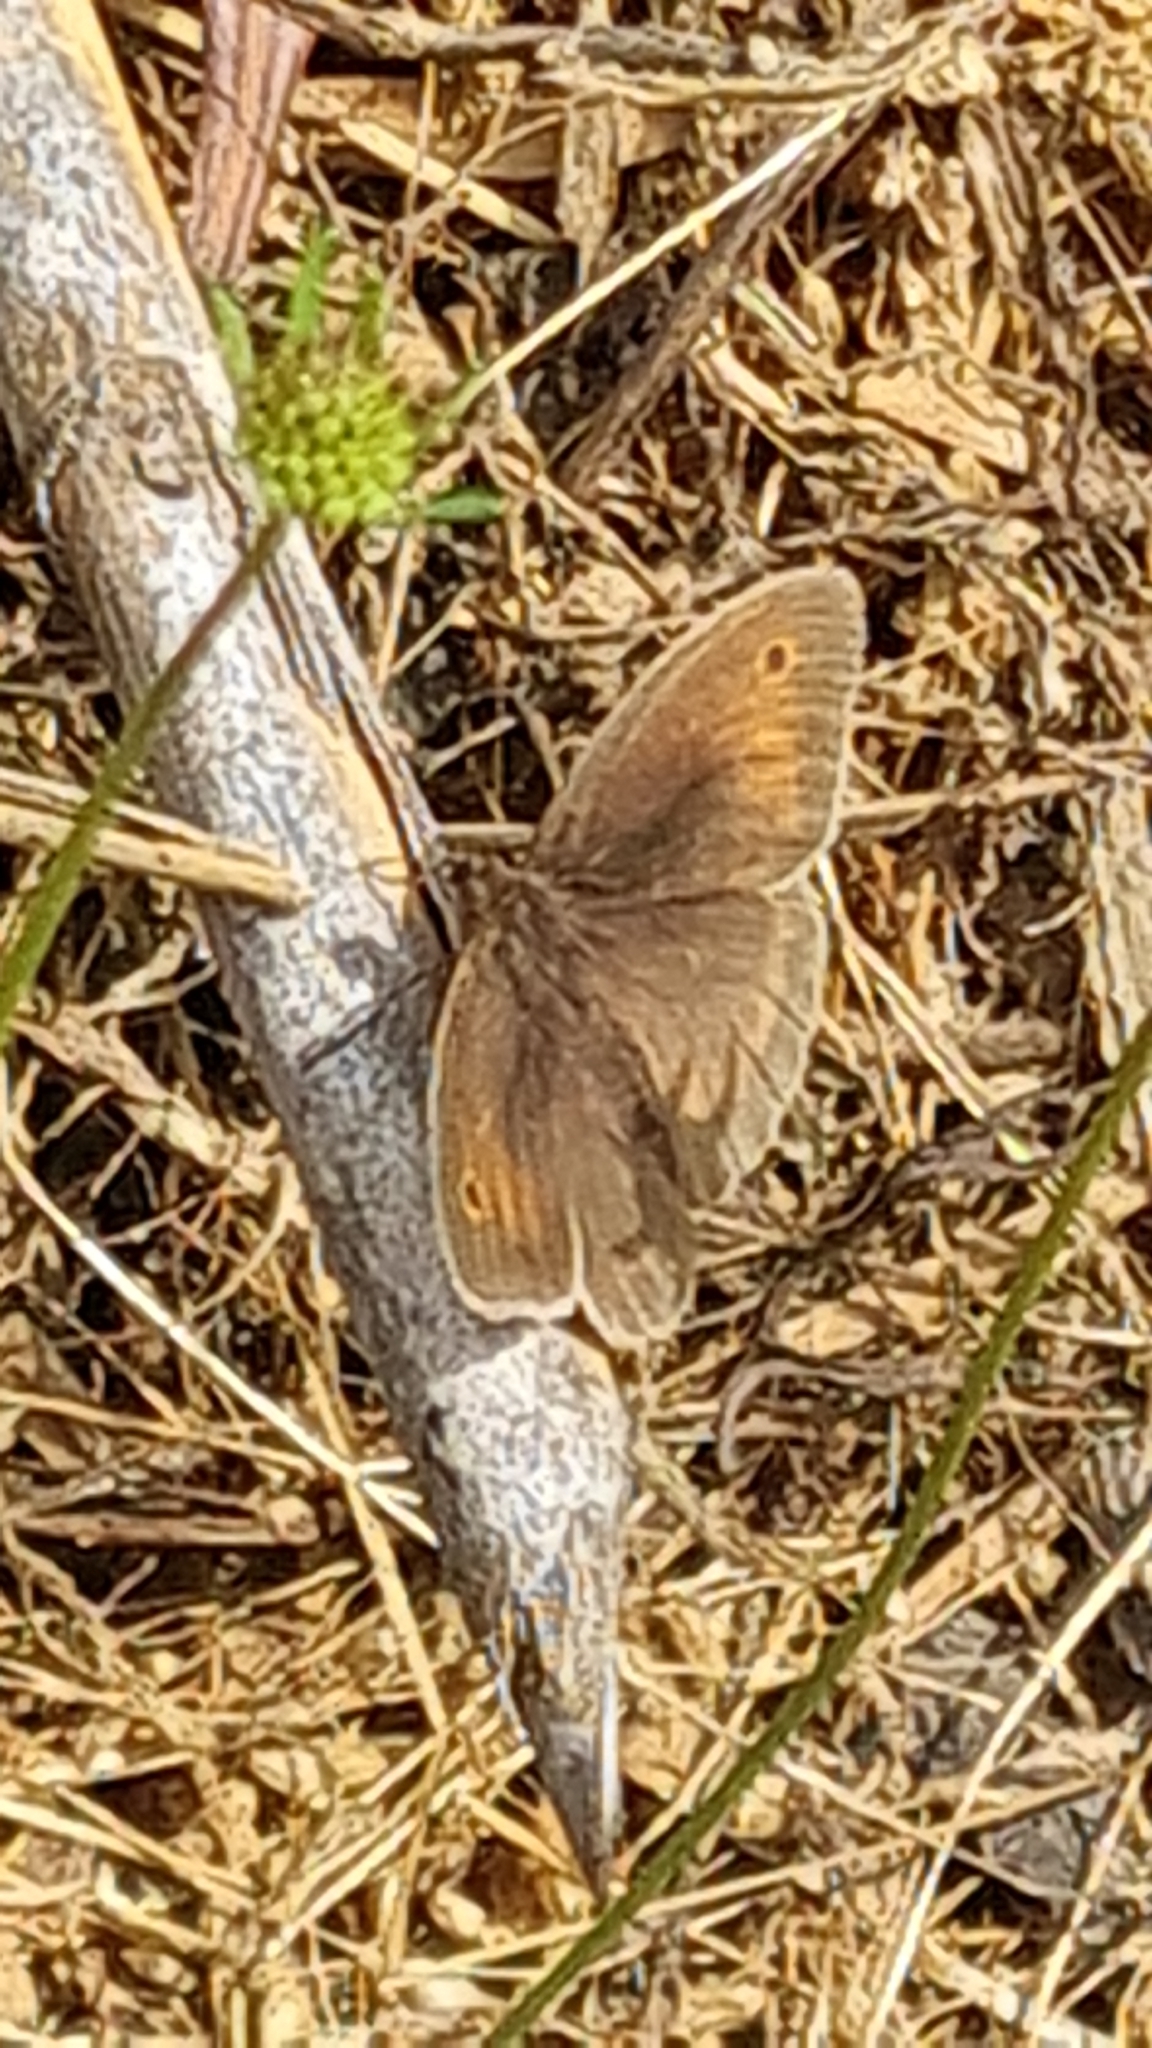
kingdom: Animalia
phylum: Arthropoda
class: Insecta
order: Lepidoptera
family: Nymphalidae
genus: Maniola
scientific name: Maniola jurtina
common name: Meadow brown
